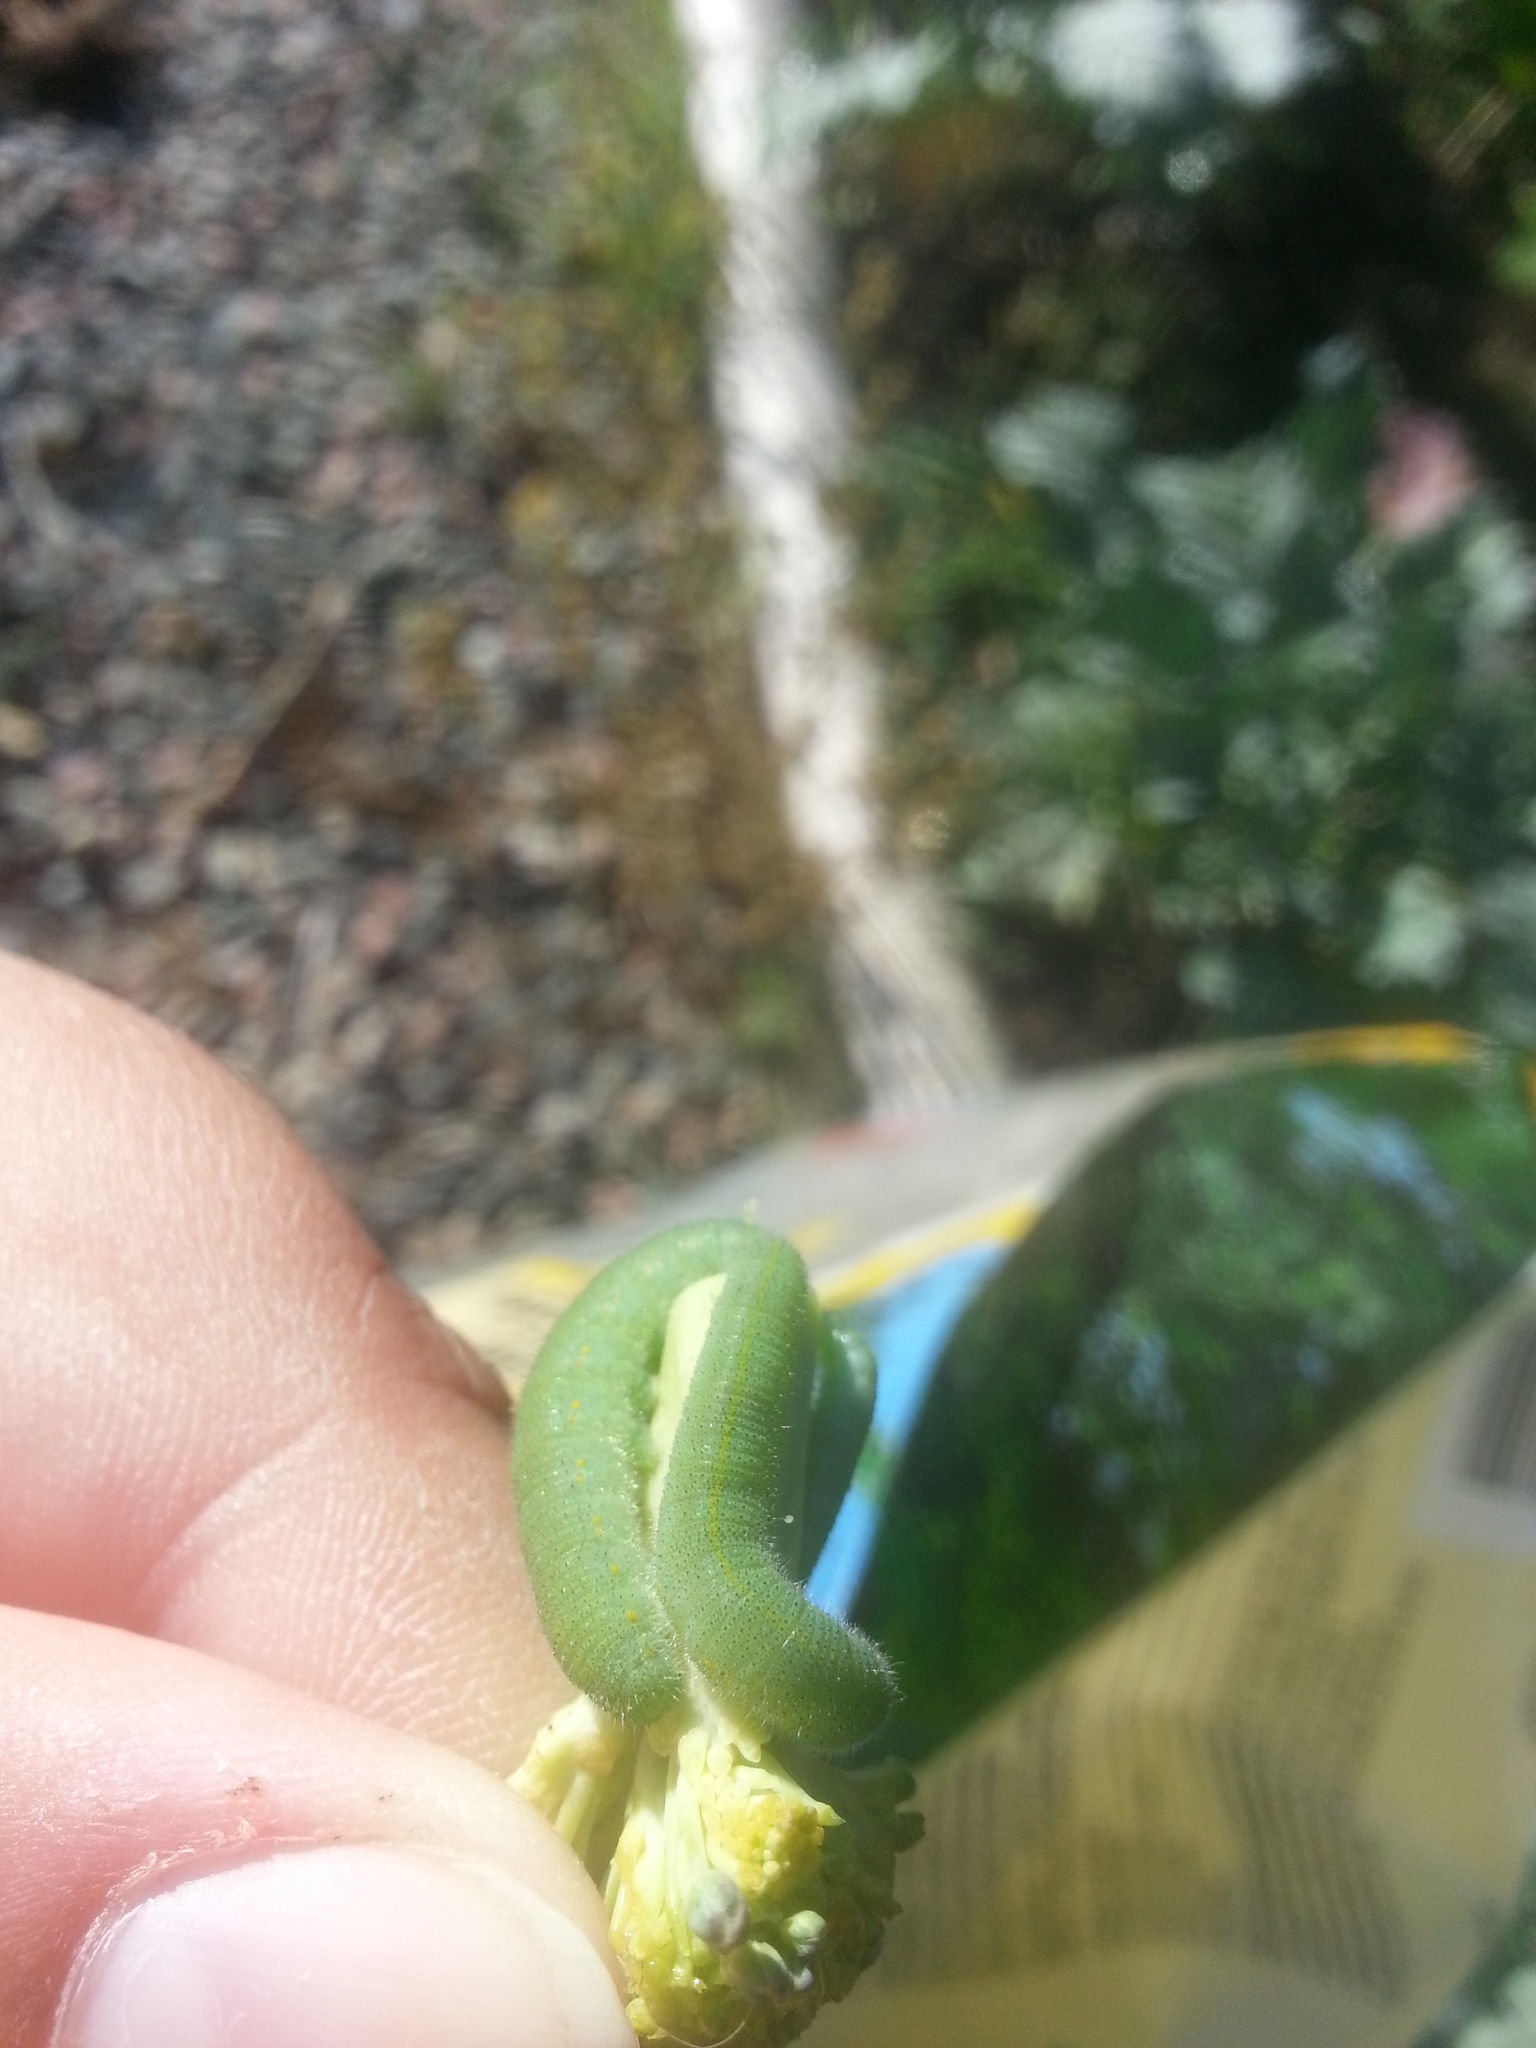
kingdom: Animalia
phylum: Arthropoda
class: Insecta
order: Lepidoptera
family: Pieridae
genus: Pieris
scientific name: Pieris rapae
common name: Small white
